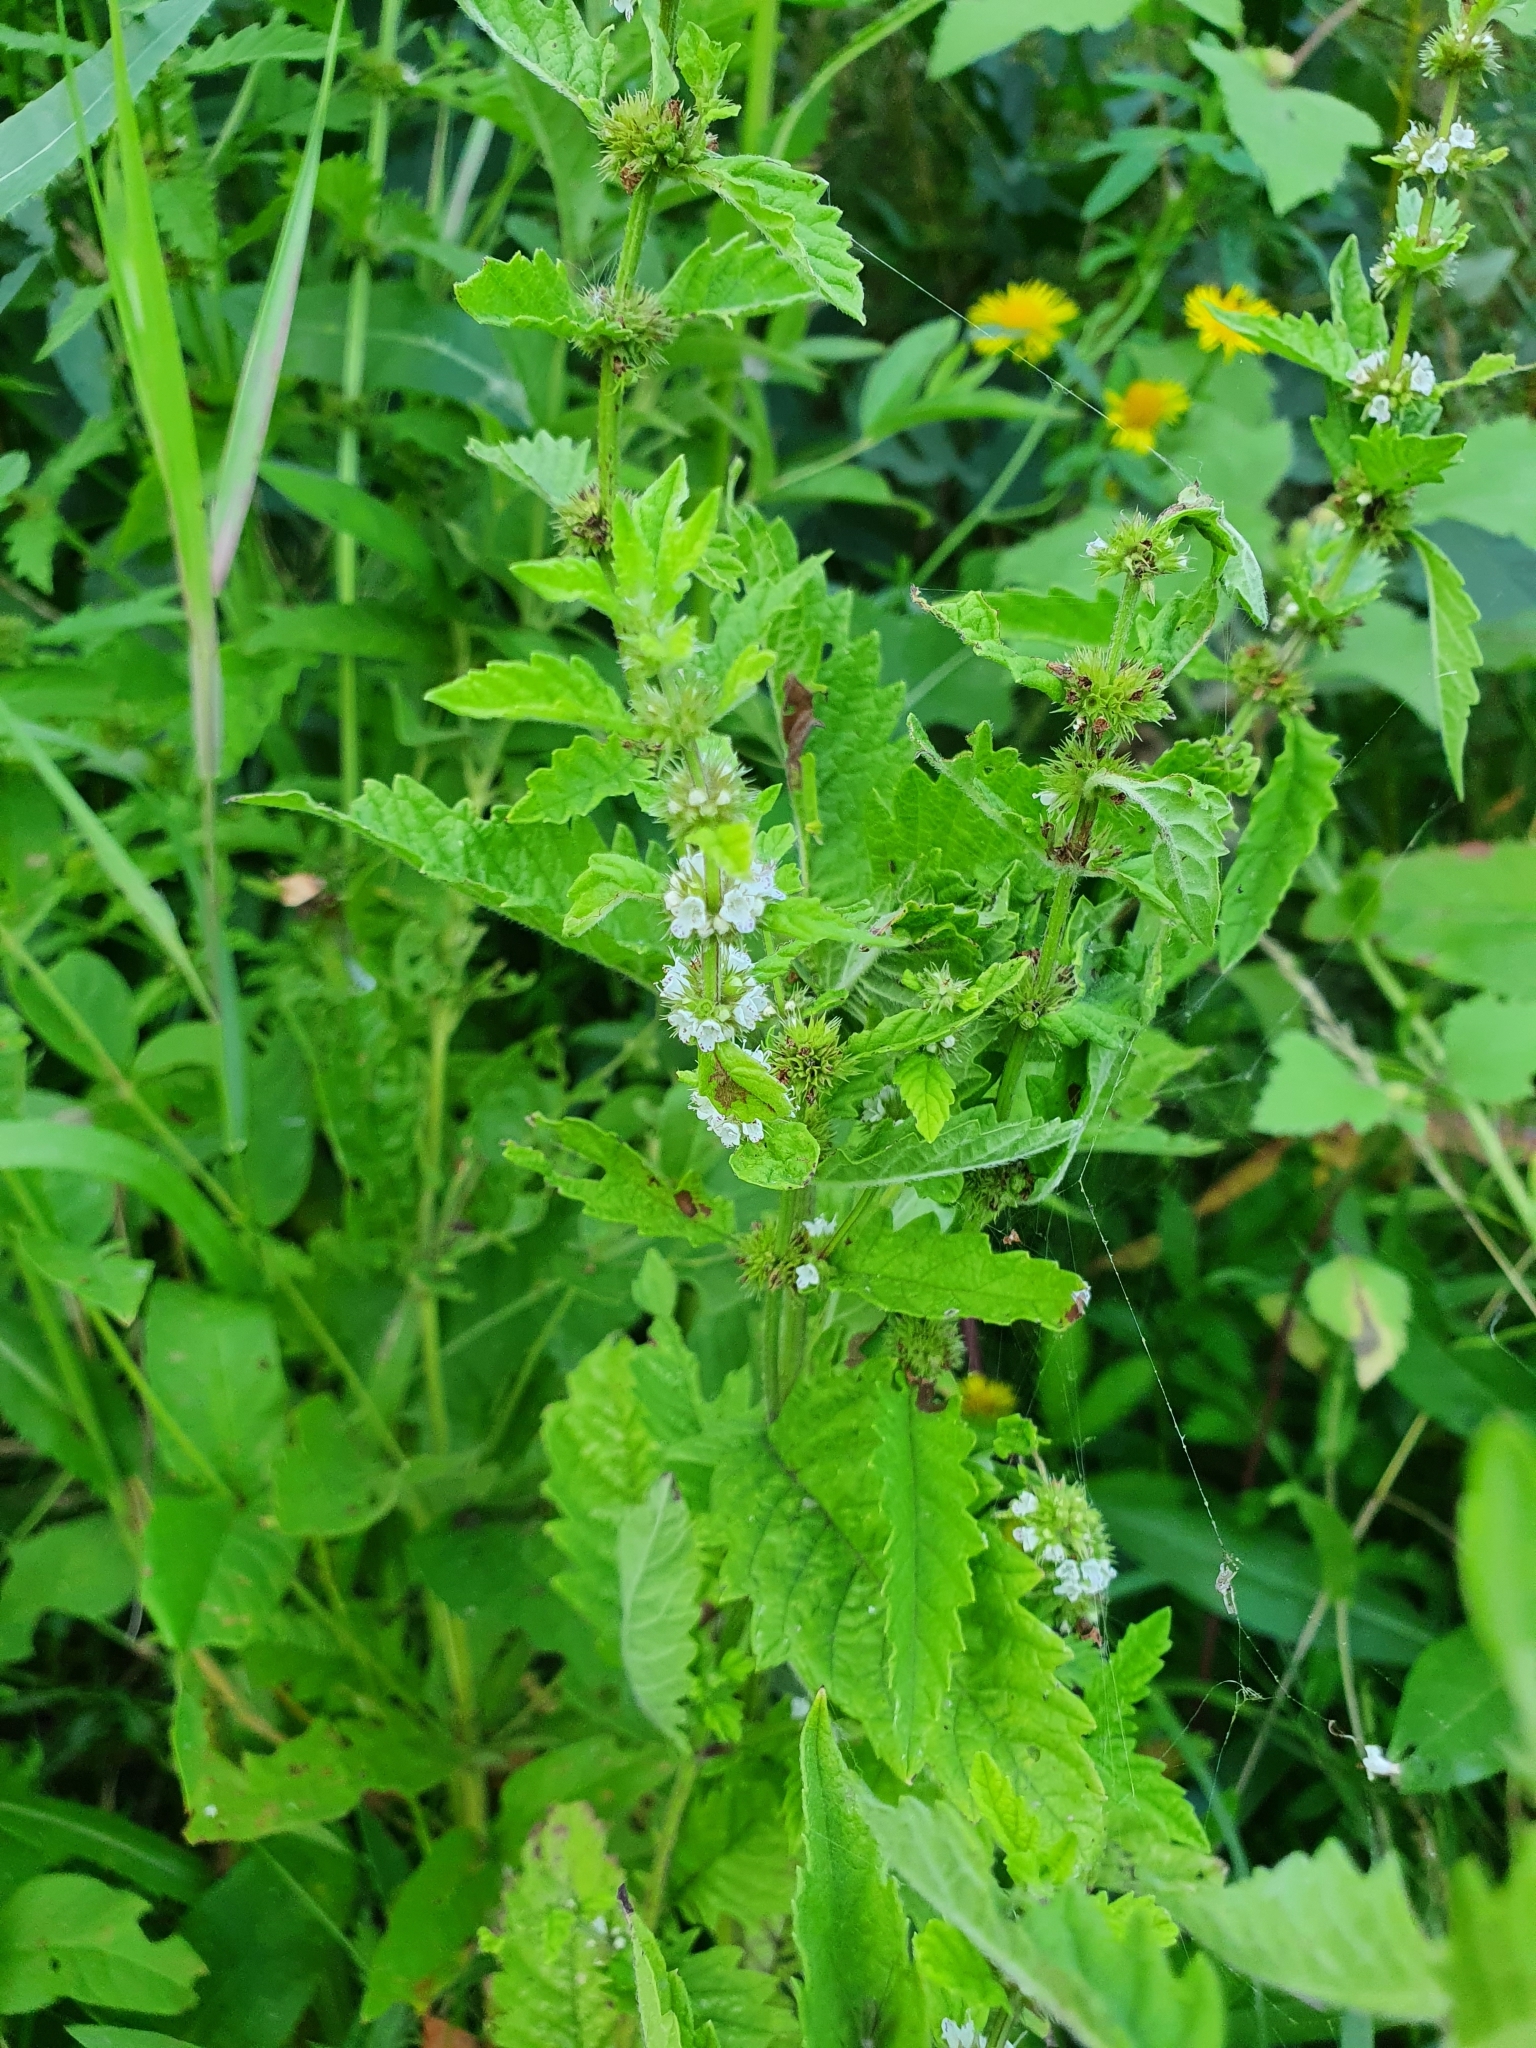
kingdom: Plantae
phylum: Tracheophyta
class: Magnoliopsida
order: Lamiales
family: Lamiaceae
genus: Lycopus
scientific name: Lycopus europaeus
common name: European bugleweed
